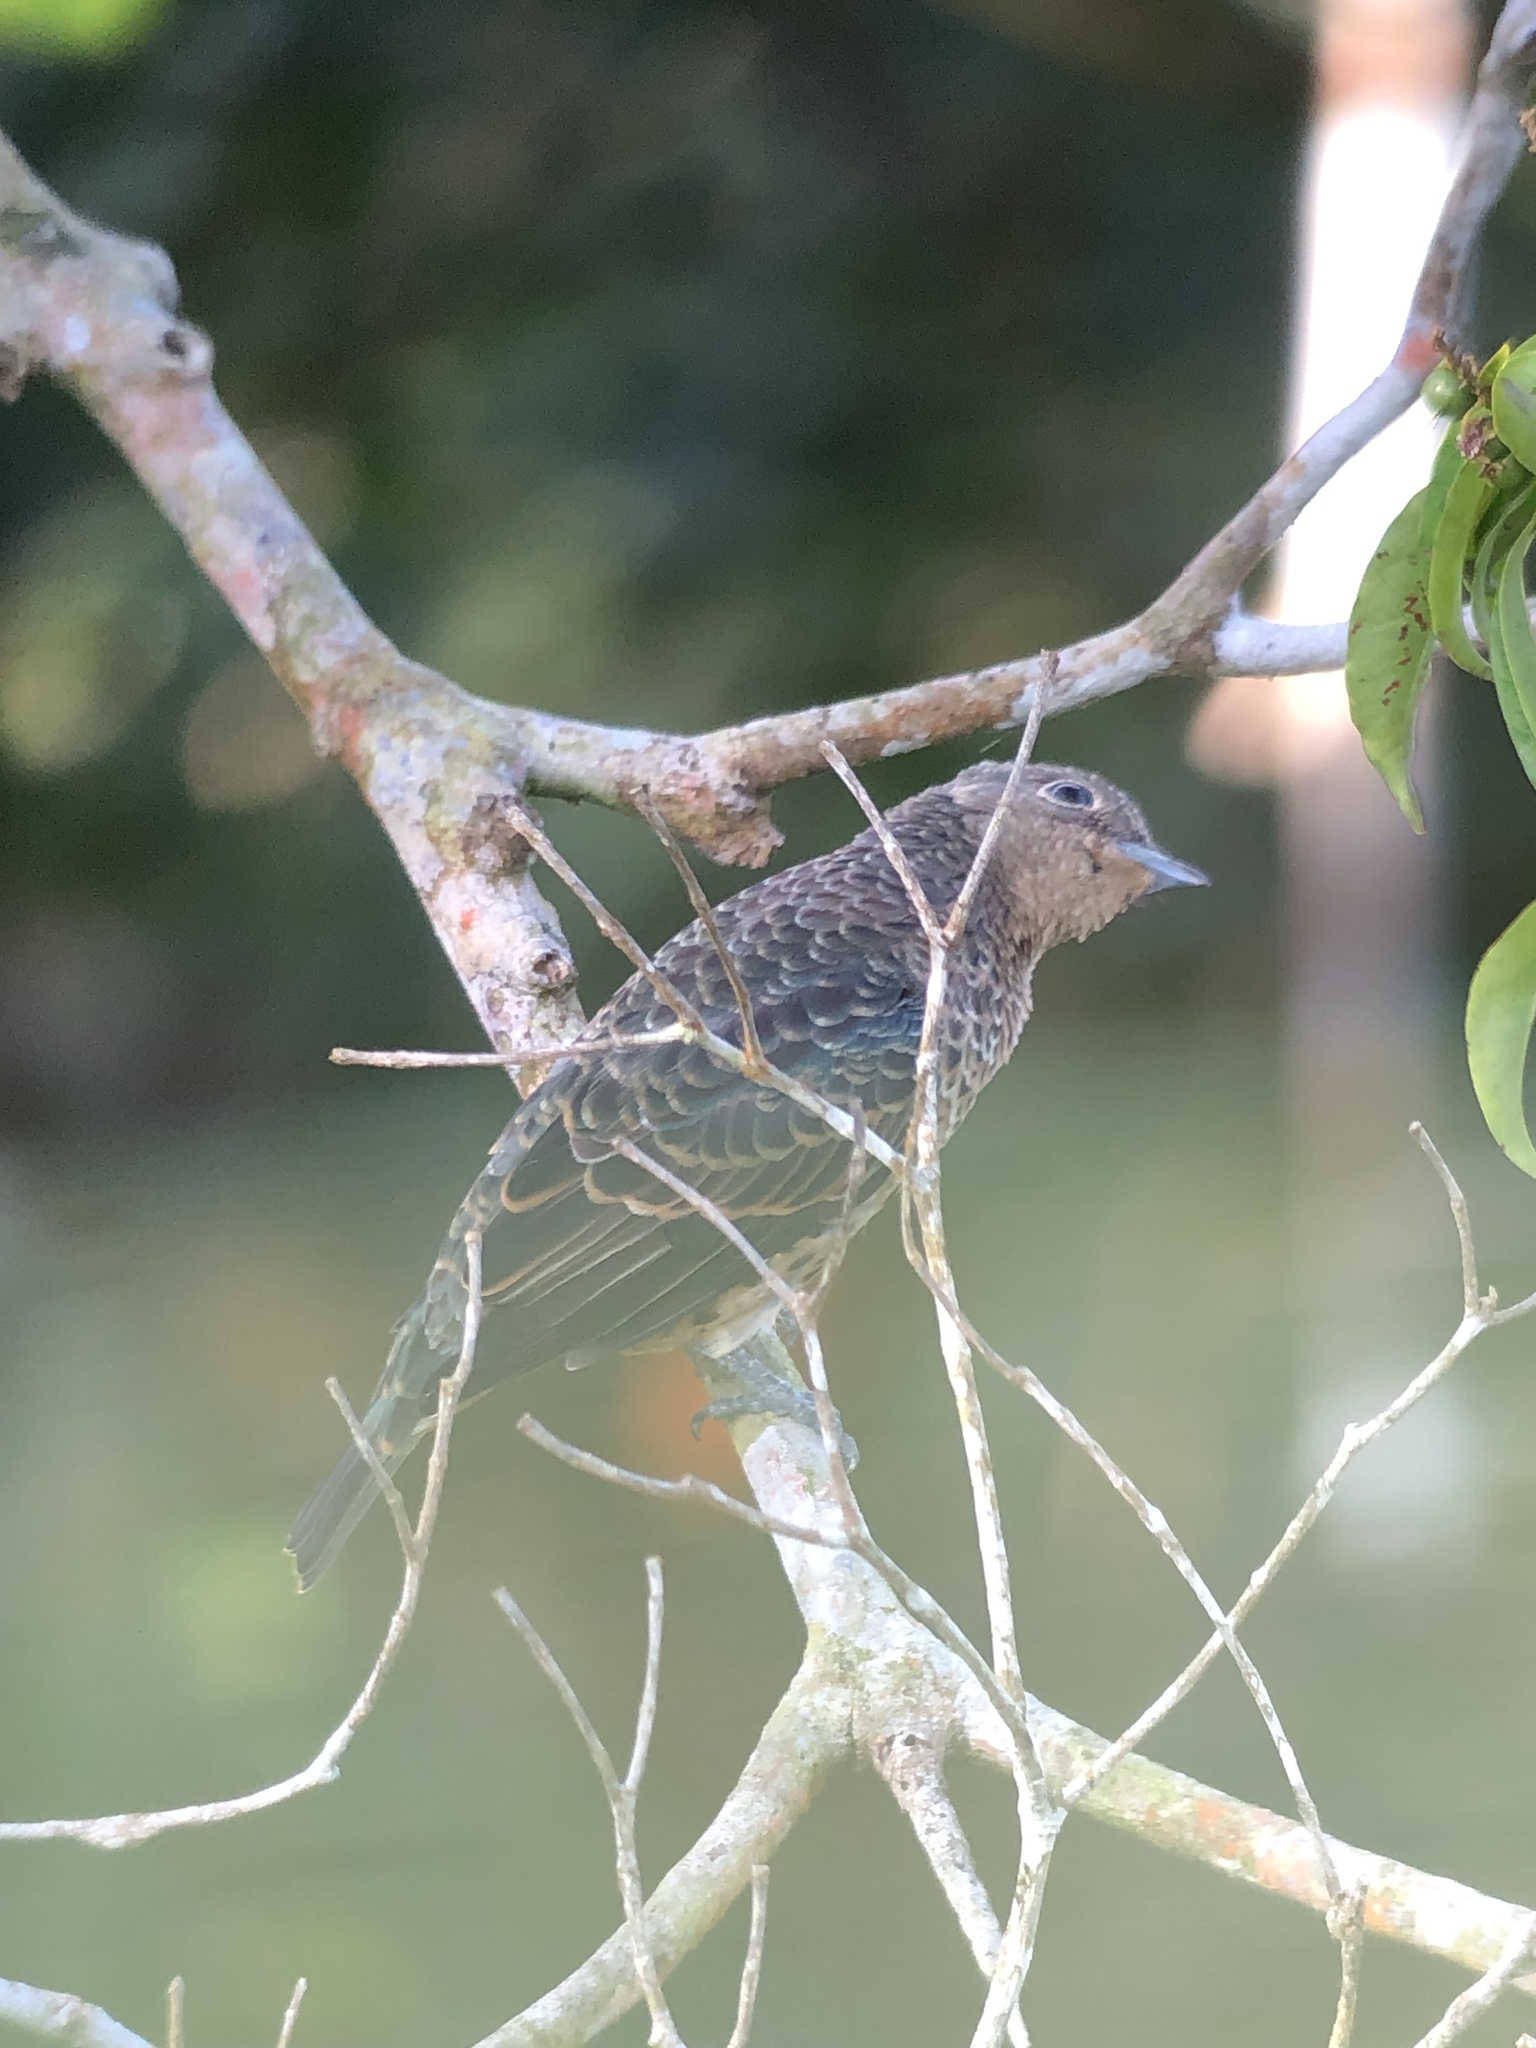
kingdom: Animalia
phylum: Chordata
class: Aves
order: Passeriformes
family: Cotingidae
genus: Cotinga
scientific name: Cotinga nattererii
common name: Blue cotinga
